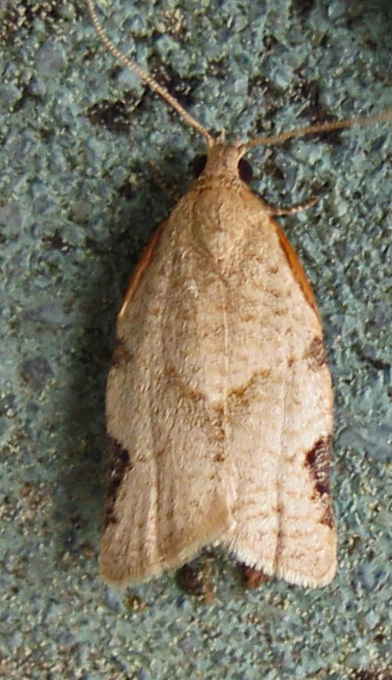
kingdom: Animalia
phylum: Arthropoda
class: Insecta
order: Lepidoptera
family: Tortricidae
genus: Clepsis
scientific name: Clepsis virescana
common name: Greenish apple moth
